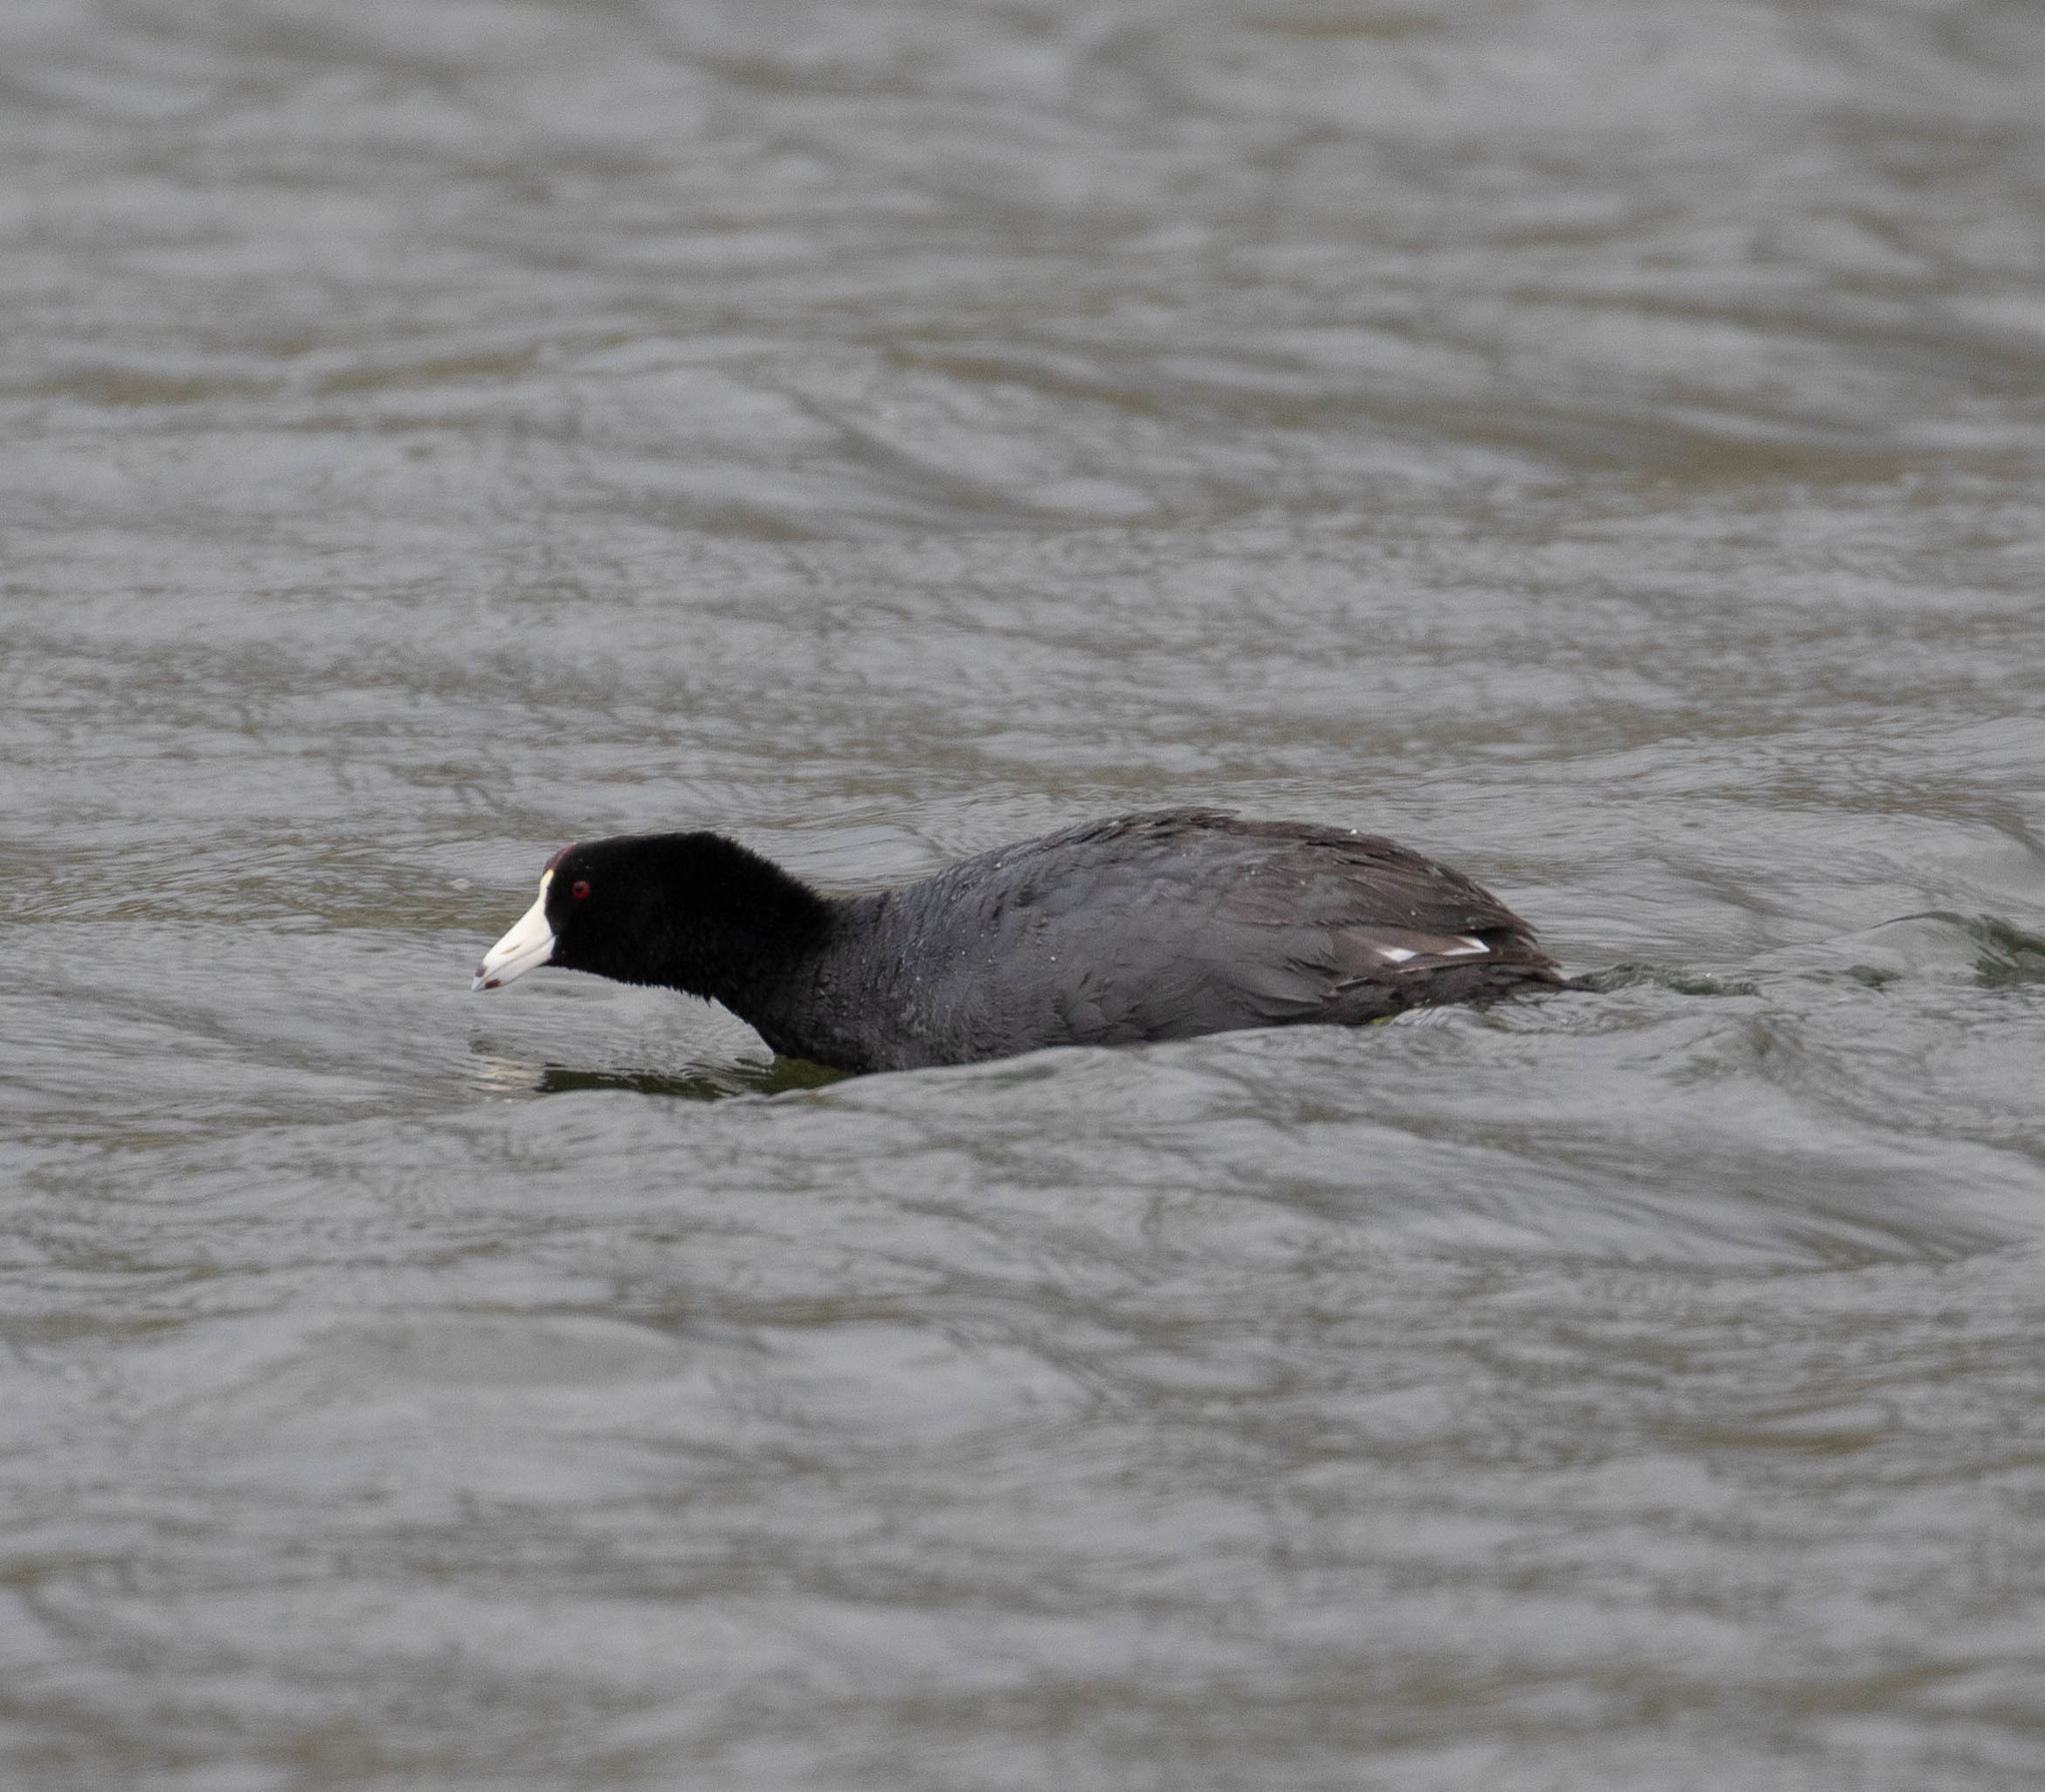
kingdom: Animalia
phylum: Chordata
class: Aves
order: Gruiformes
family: Rallidae
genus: Fulica
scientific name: Fulica americana
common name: American coot
